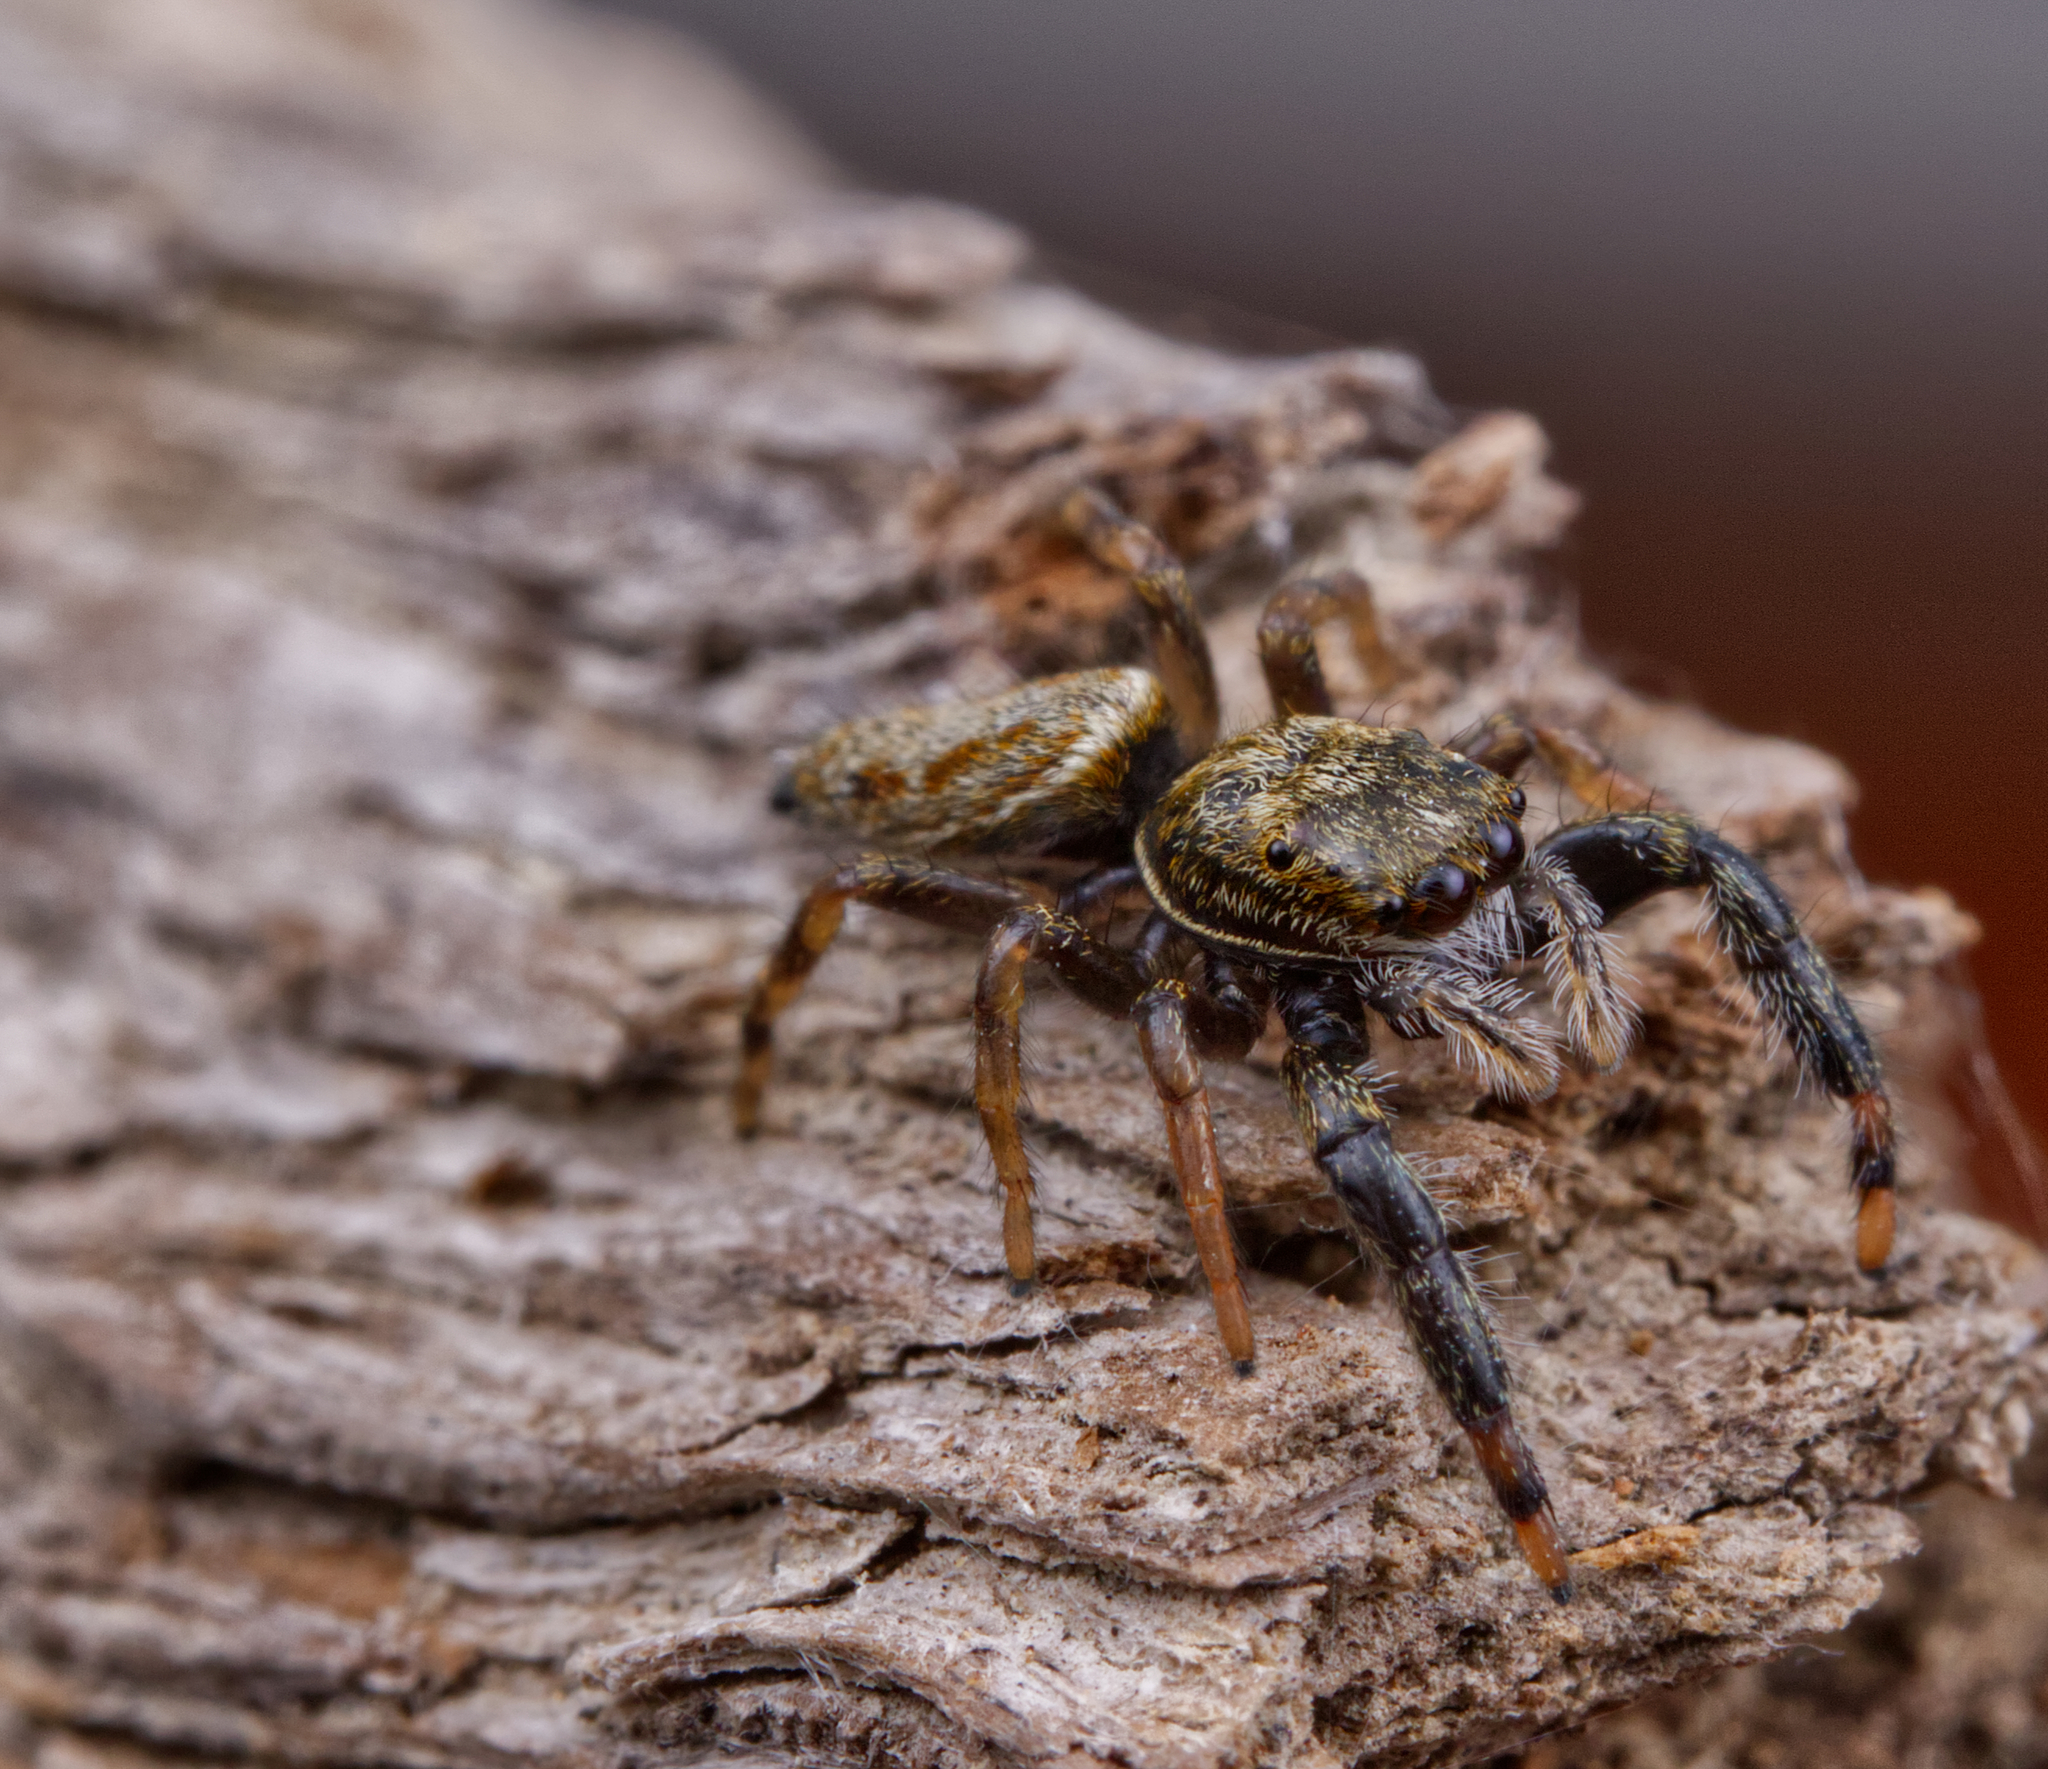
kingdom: Animalia
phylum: Arthropoda
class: Arachnida
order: Araneae
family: Salticidae
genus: Marpissa
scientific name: Marpissa formosa
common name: Short-bellied slender jumping spider
